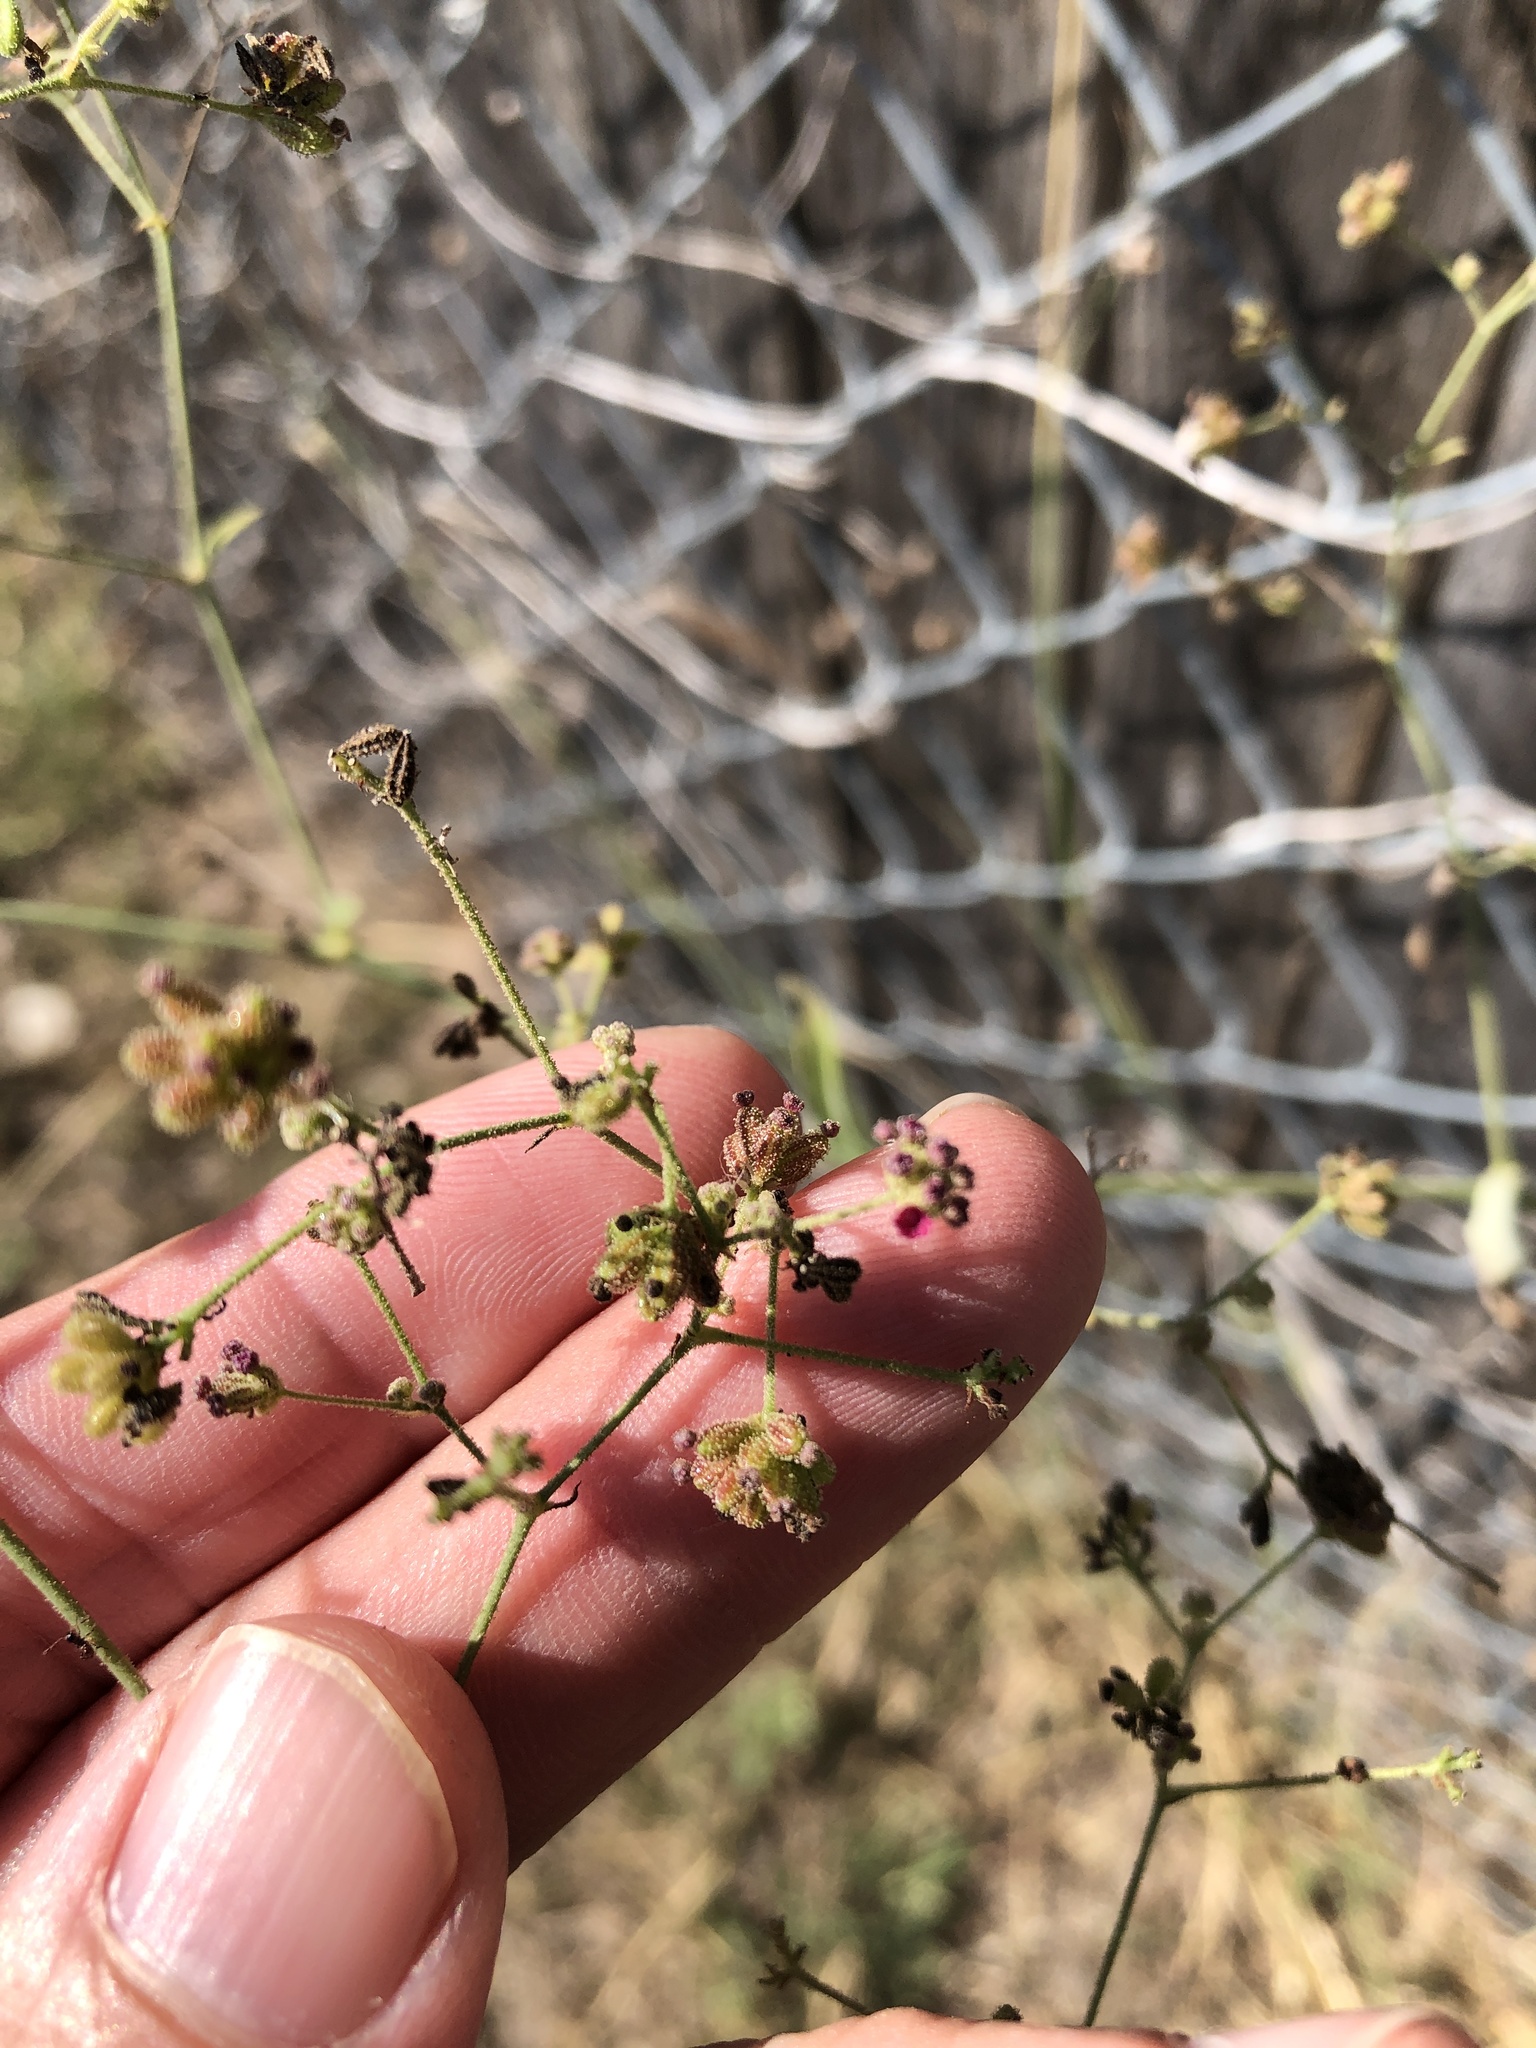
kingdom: Plantae
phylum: Tracheophyta
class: Magnoliopsida
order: Caryophyllales
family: Nyctaginaceae
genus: Boerhavia
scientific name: Boerhavia coccinea
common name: Scarlet spiderling
